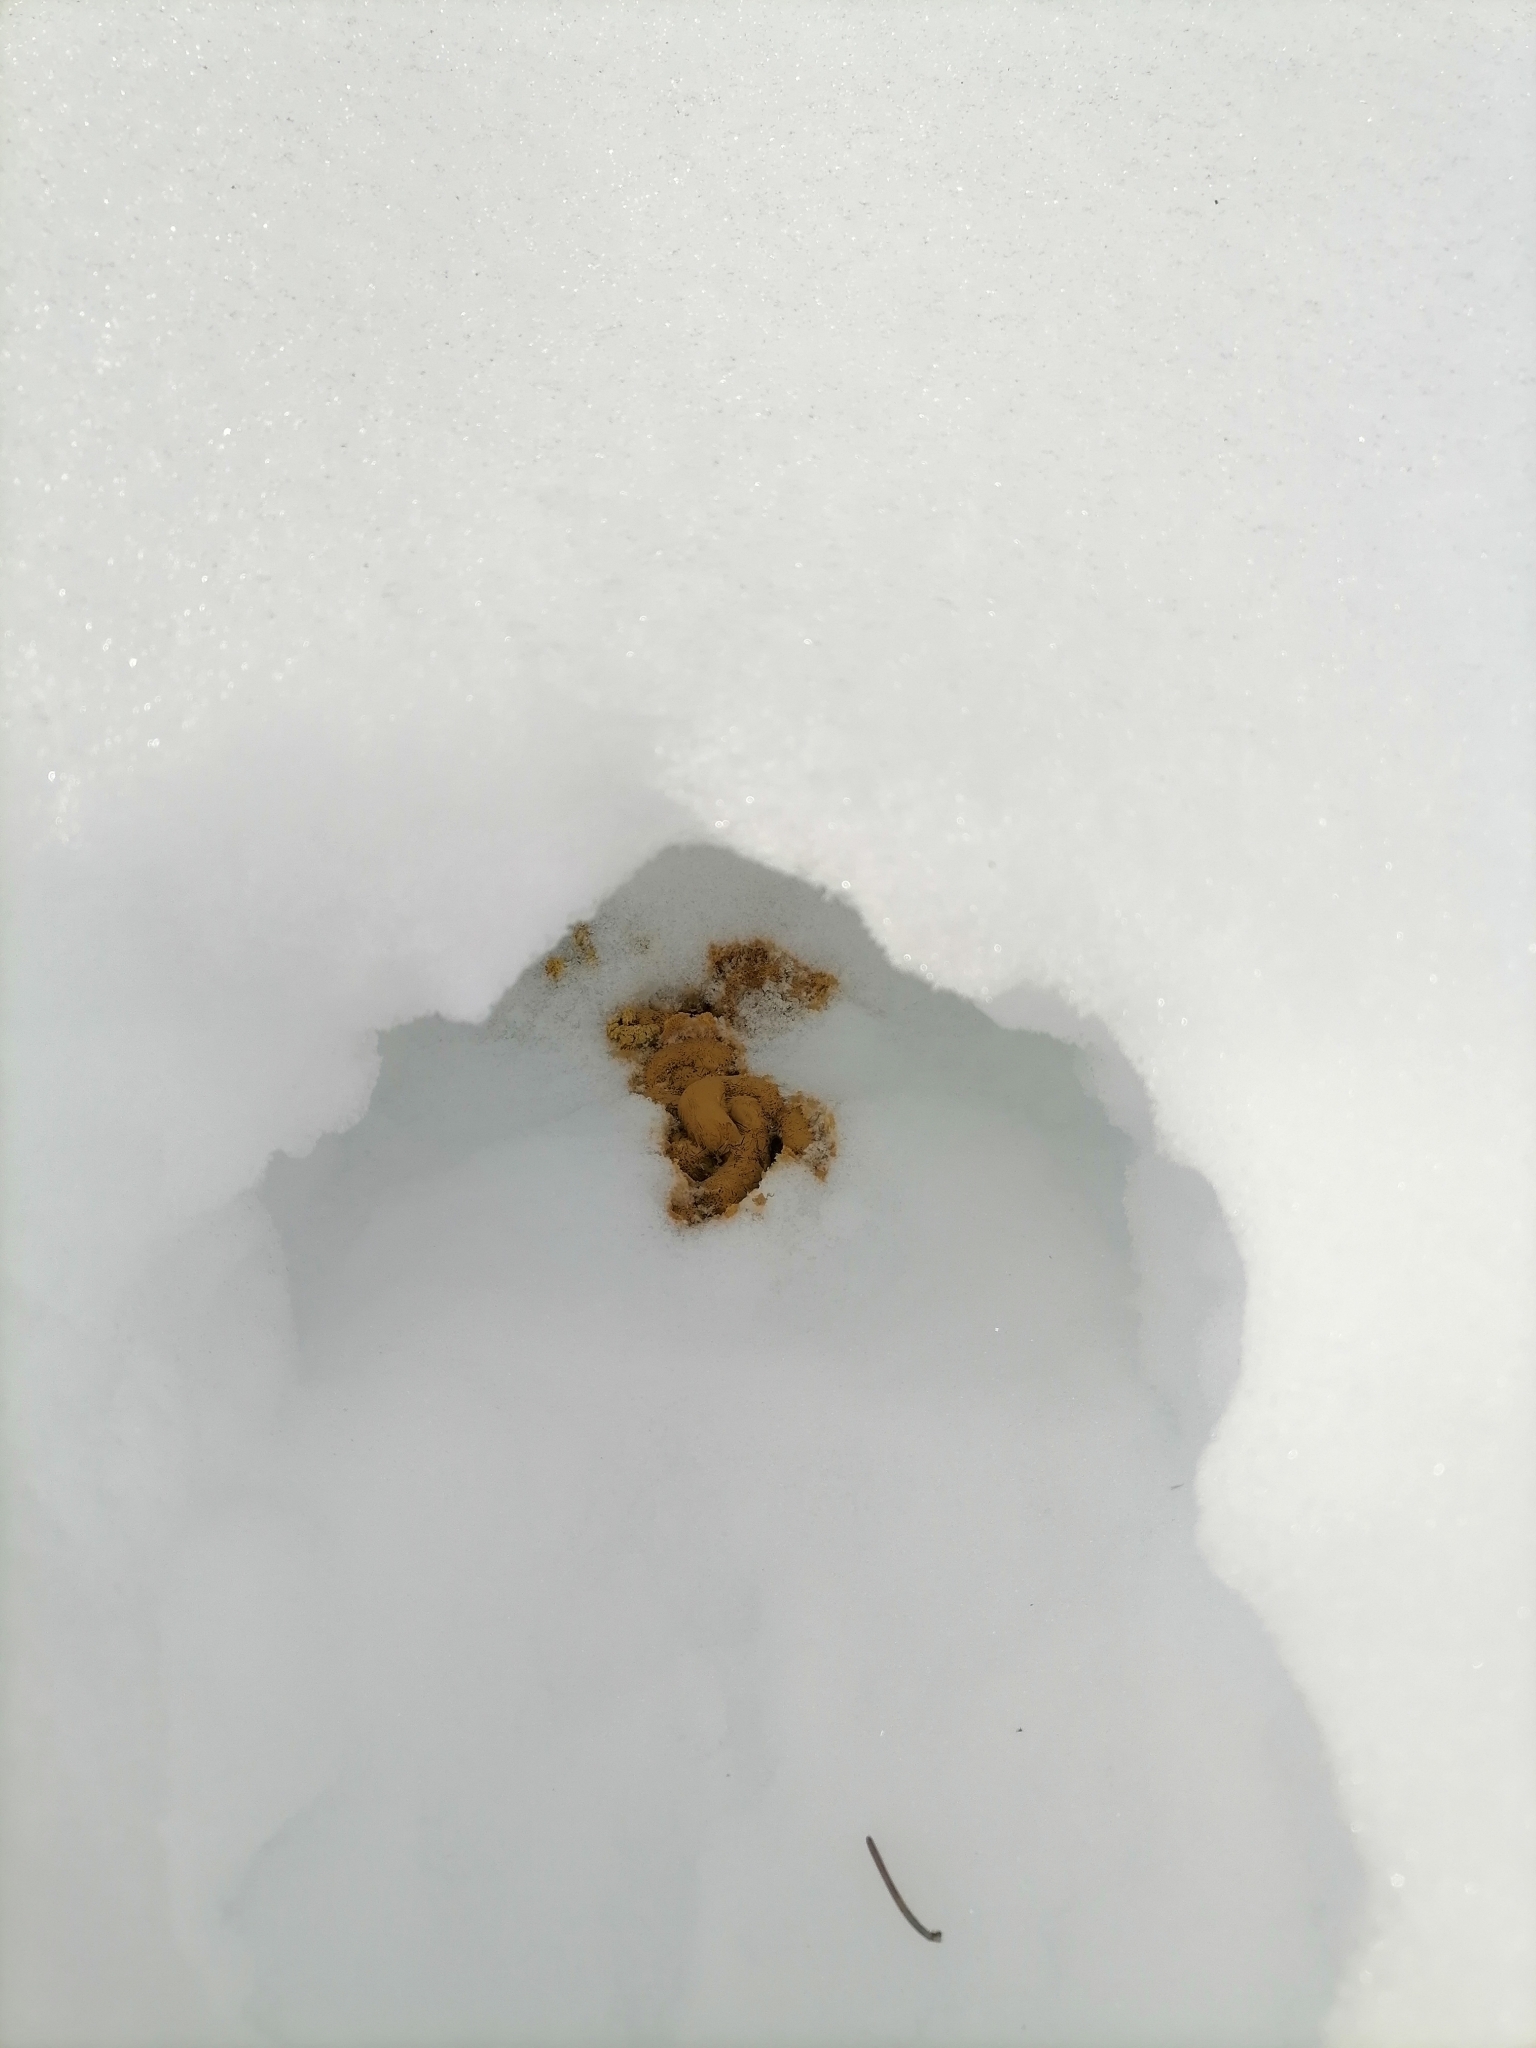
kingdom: Animalia
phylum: Chordata
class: Aves
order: Galliformes
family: Phasianidae
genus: Lyrurus
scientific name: Lyrurus tetrix
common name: Black grouse
